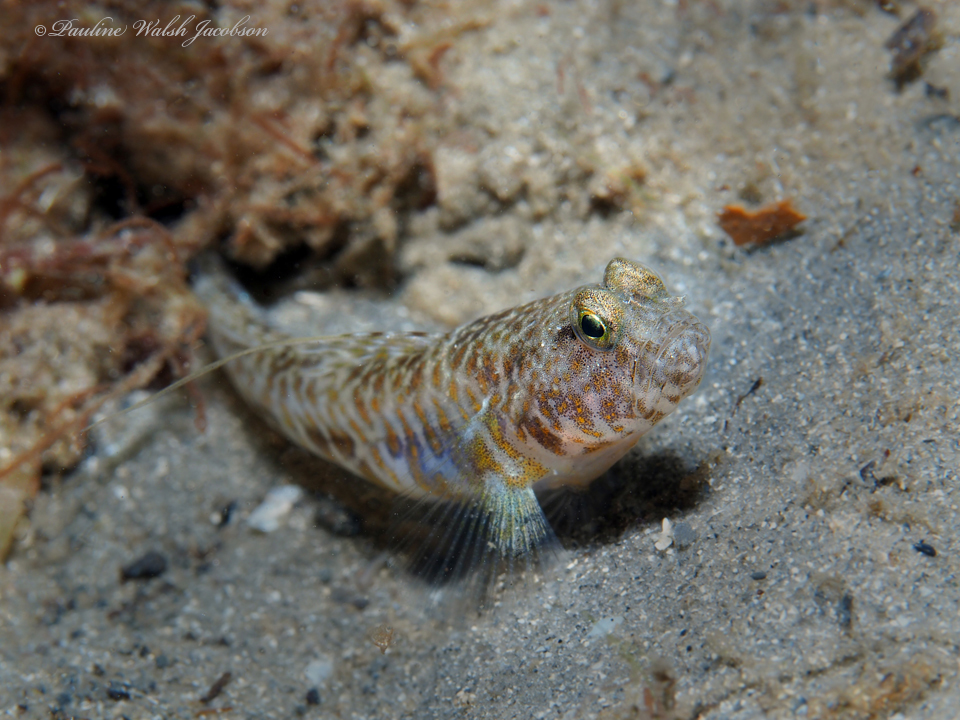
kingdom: Animalia
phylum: Chordata
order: Perciformes
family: Gobiidae
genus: Nes
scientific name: Nes longus
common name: Orangespotted goby
